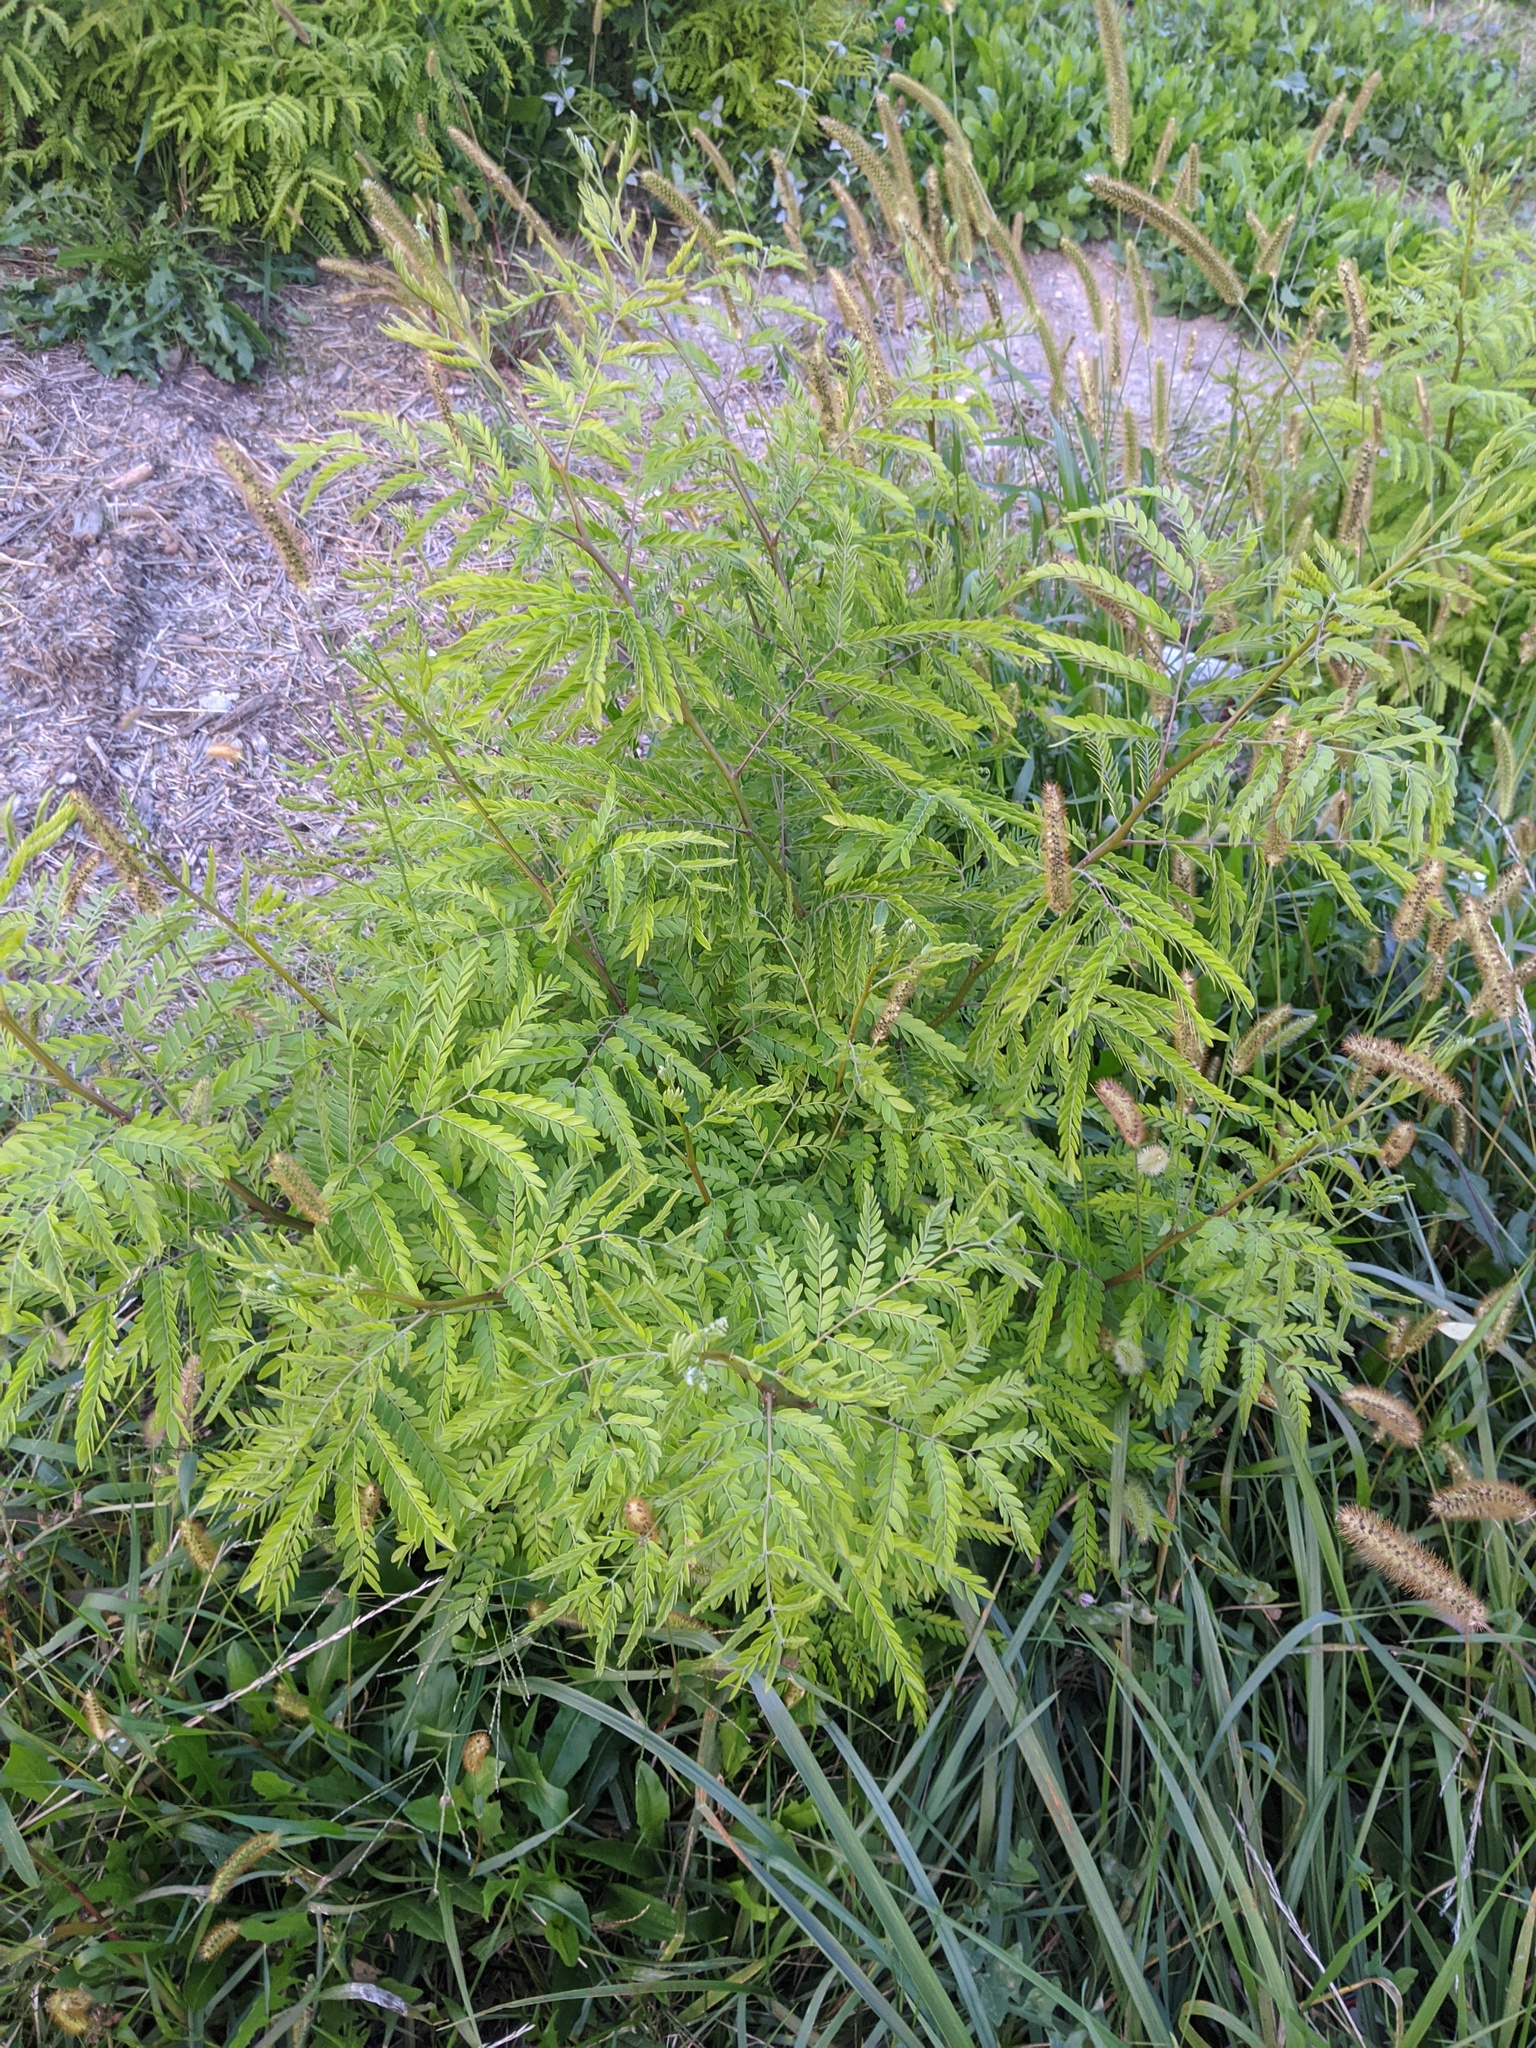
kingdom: Plantae
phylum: Tracheophyta
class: Magnoliopsida
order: Fabales
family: Fabaceae
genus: Gleditsia
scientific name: Gleditsia triacanthos
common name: Common honeylocust
